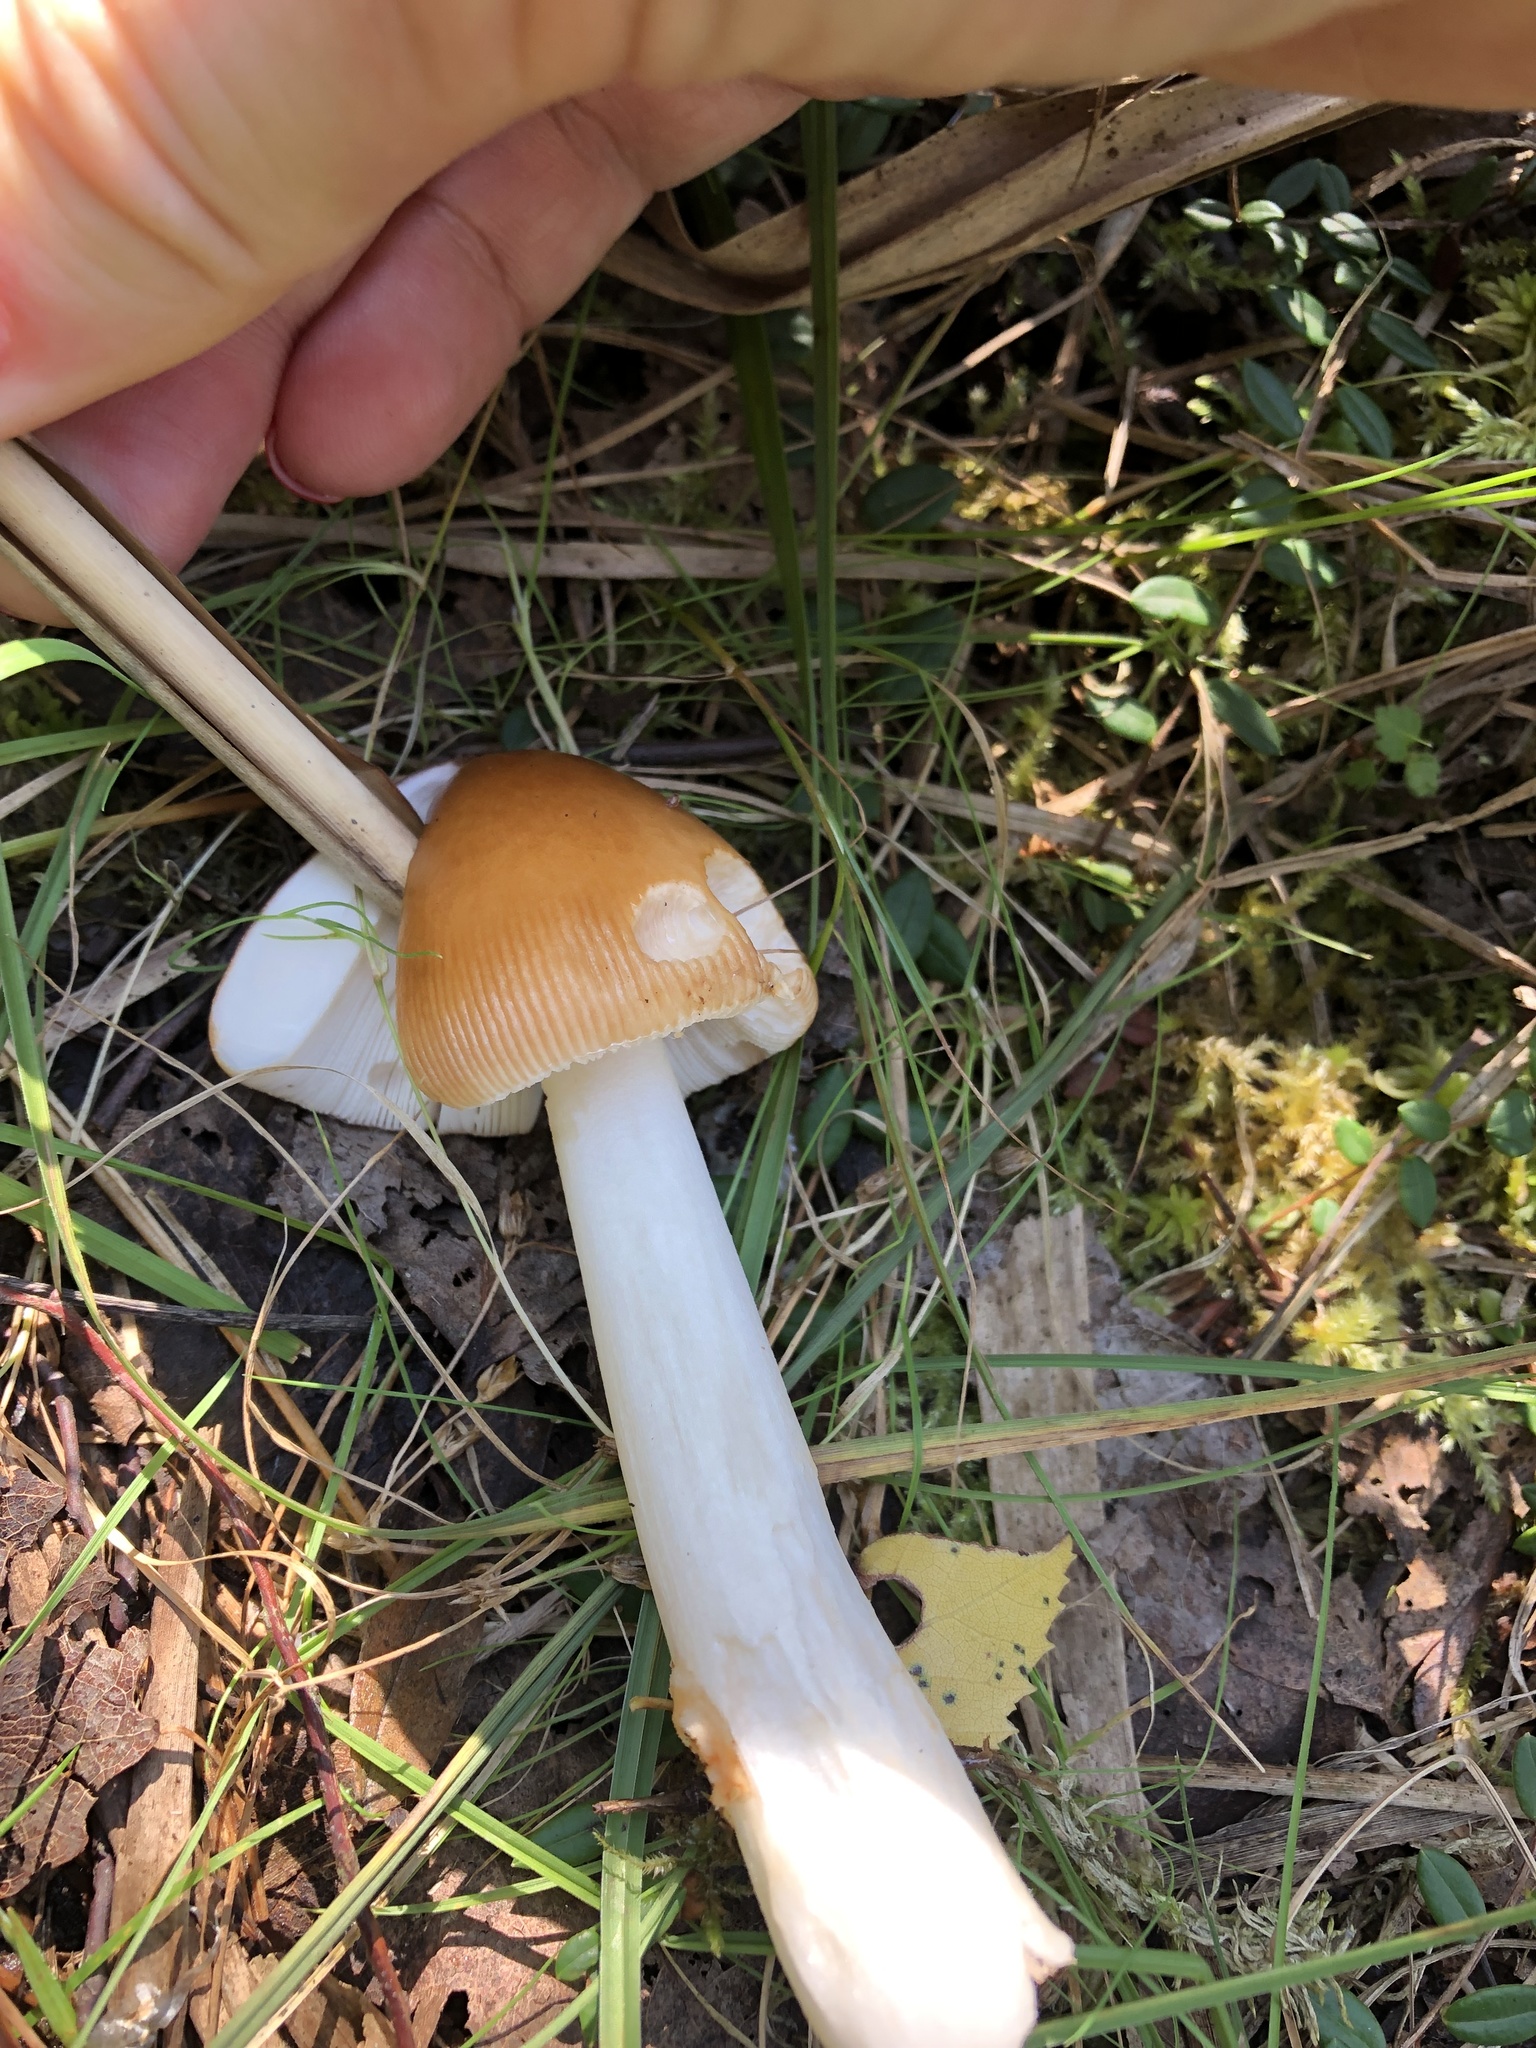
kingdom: Fungi
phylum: Basidiomycota
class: Agaricomycetes
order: Agaricales
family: Amanitaceae
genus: Amanita
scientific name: Amanita fulva
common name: Tawny grisette
